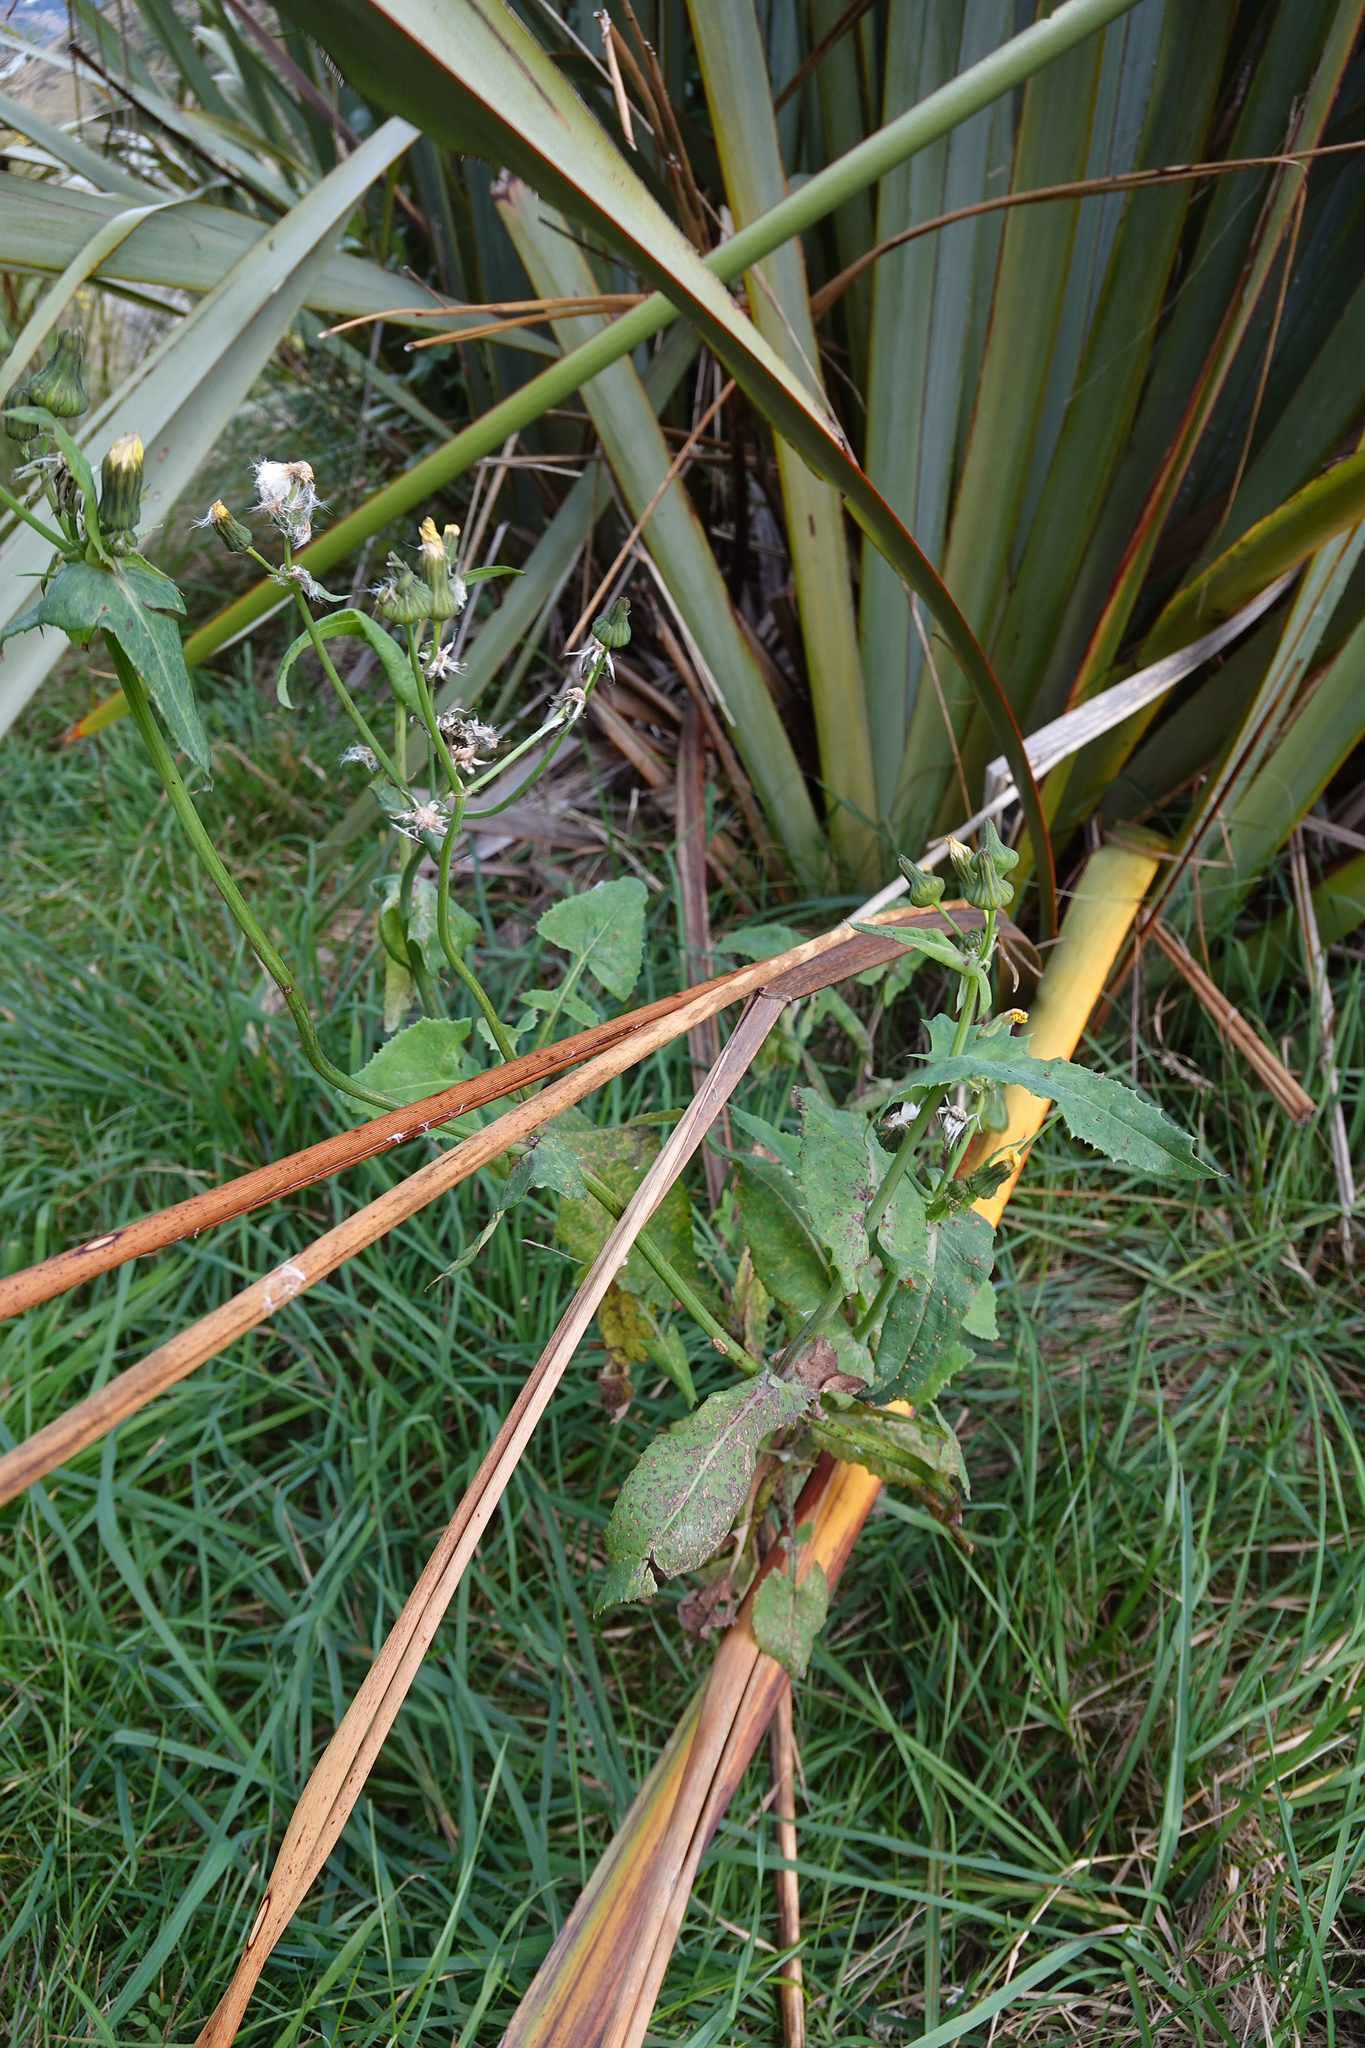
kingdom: Plantae
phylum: Tracheophyta
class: Magnoliopsida
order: Asterales
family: Asteraceae
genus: Sonchus
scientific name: Sonchus oleraceus
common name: Common sowthistle
